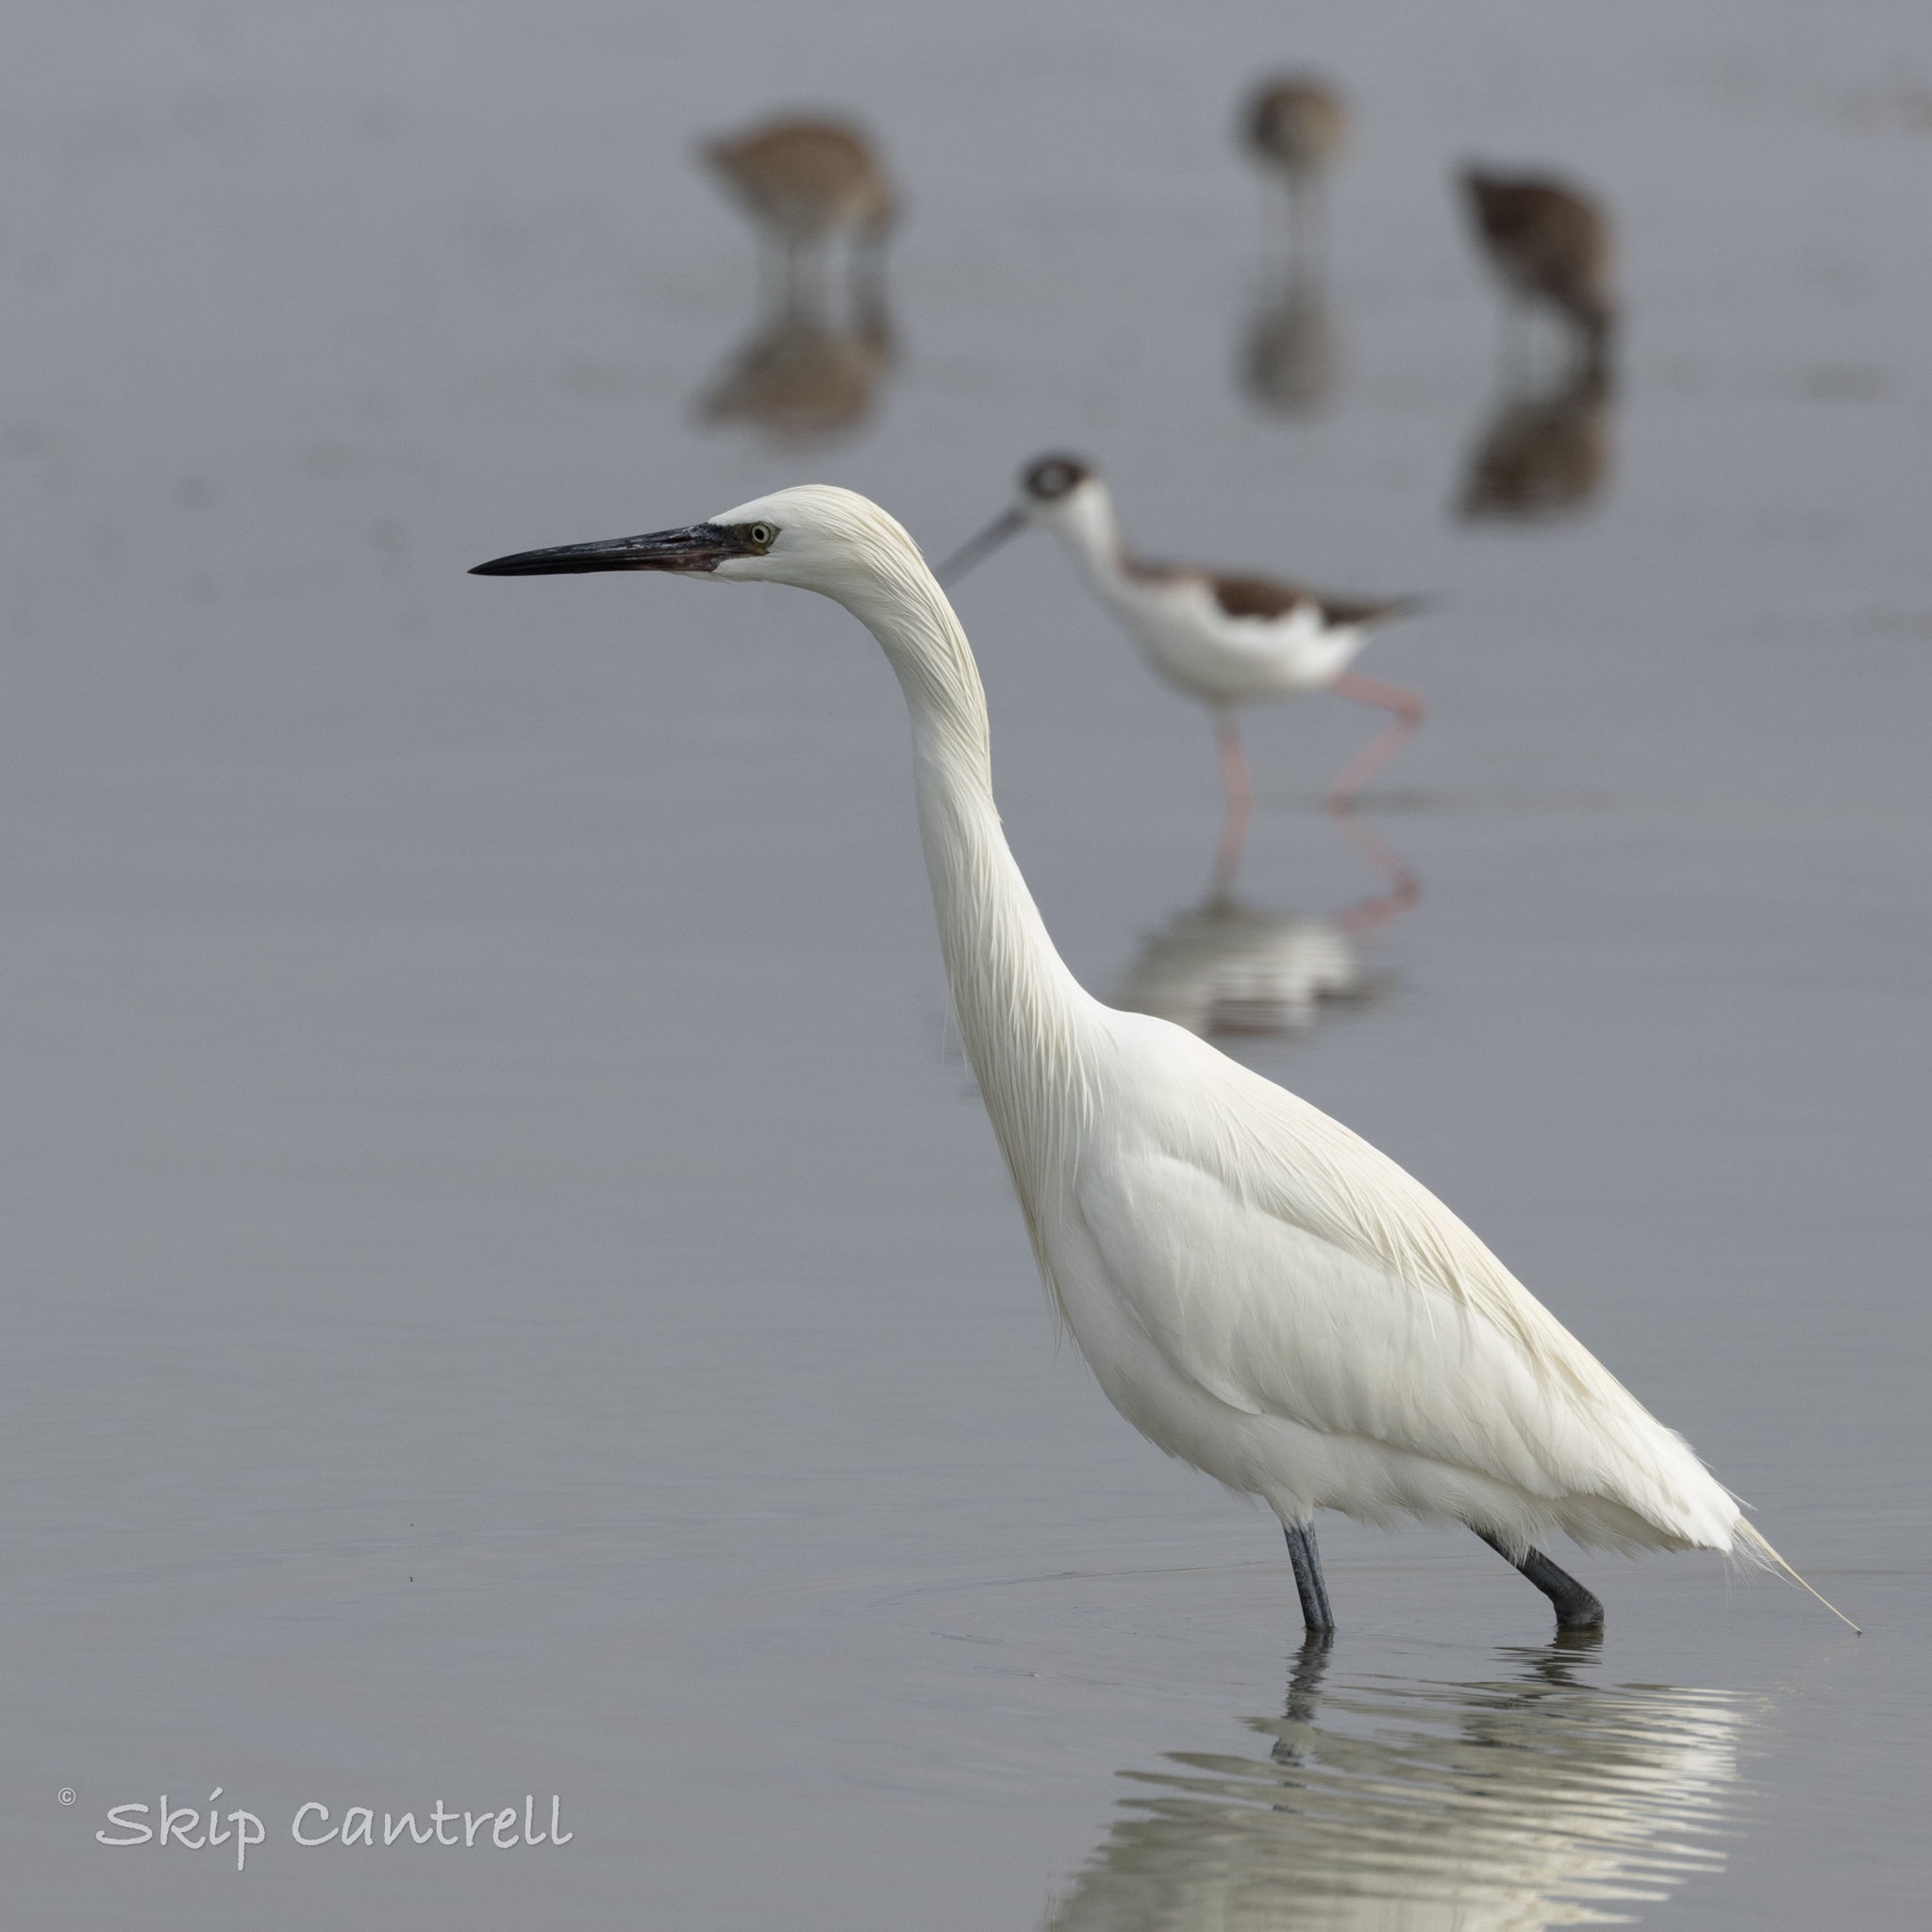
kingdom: Animalia
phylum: Chordata
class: Aves
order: Pelecaniformes
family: Ardeidae
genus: Egretta
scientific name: Egretta rufescens
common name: Reddish egret
